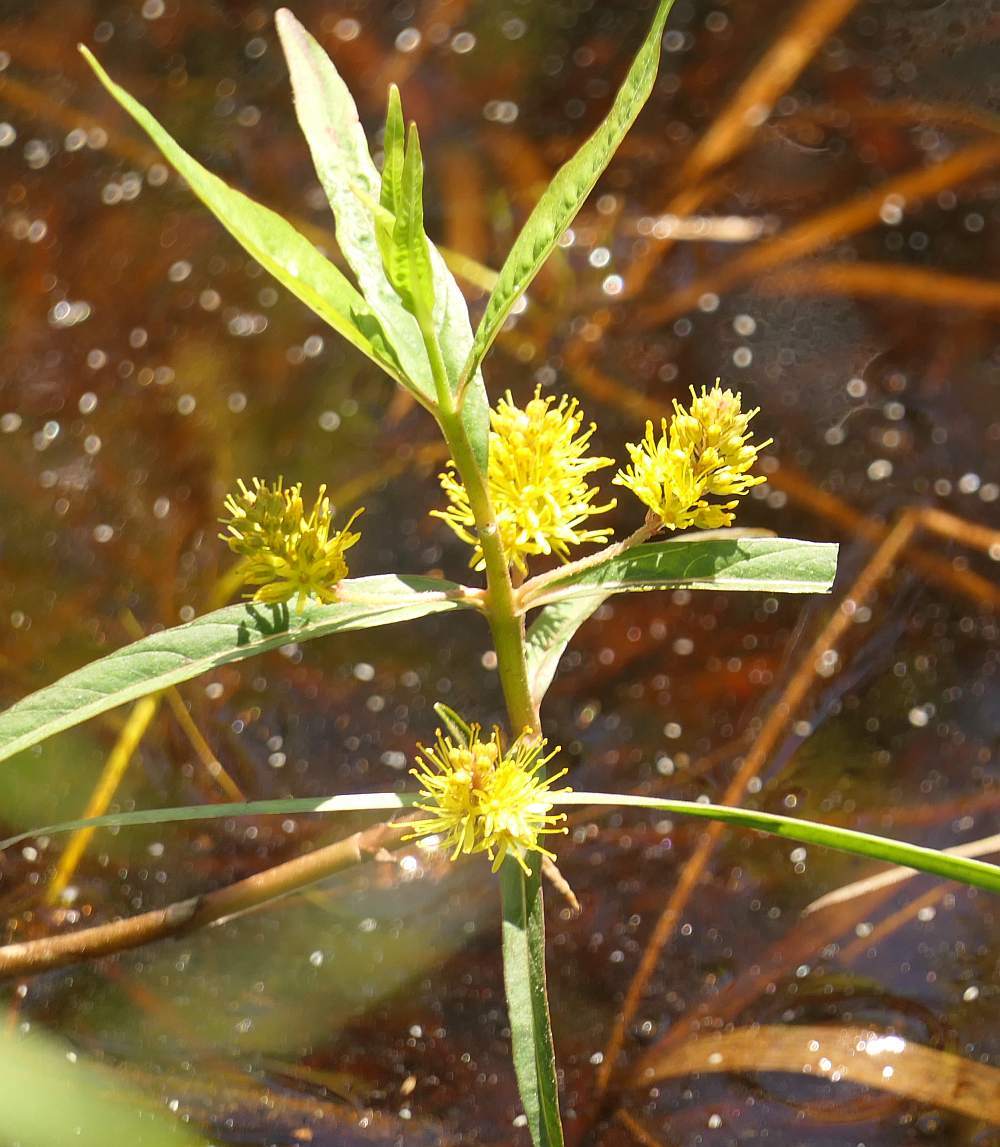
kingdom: Plantae
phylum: Tracheophyta
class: Magnoliopsida
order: Ericales
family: Primulaceae
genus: Lysimachia
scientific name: Lysimachia thyrsiflora
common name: Tufted loosestrife
